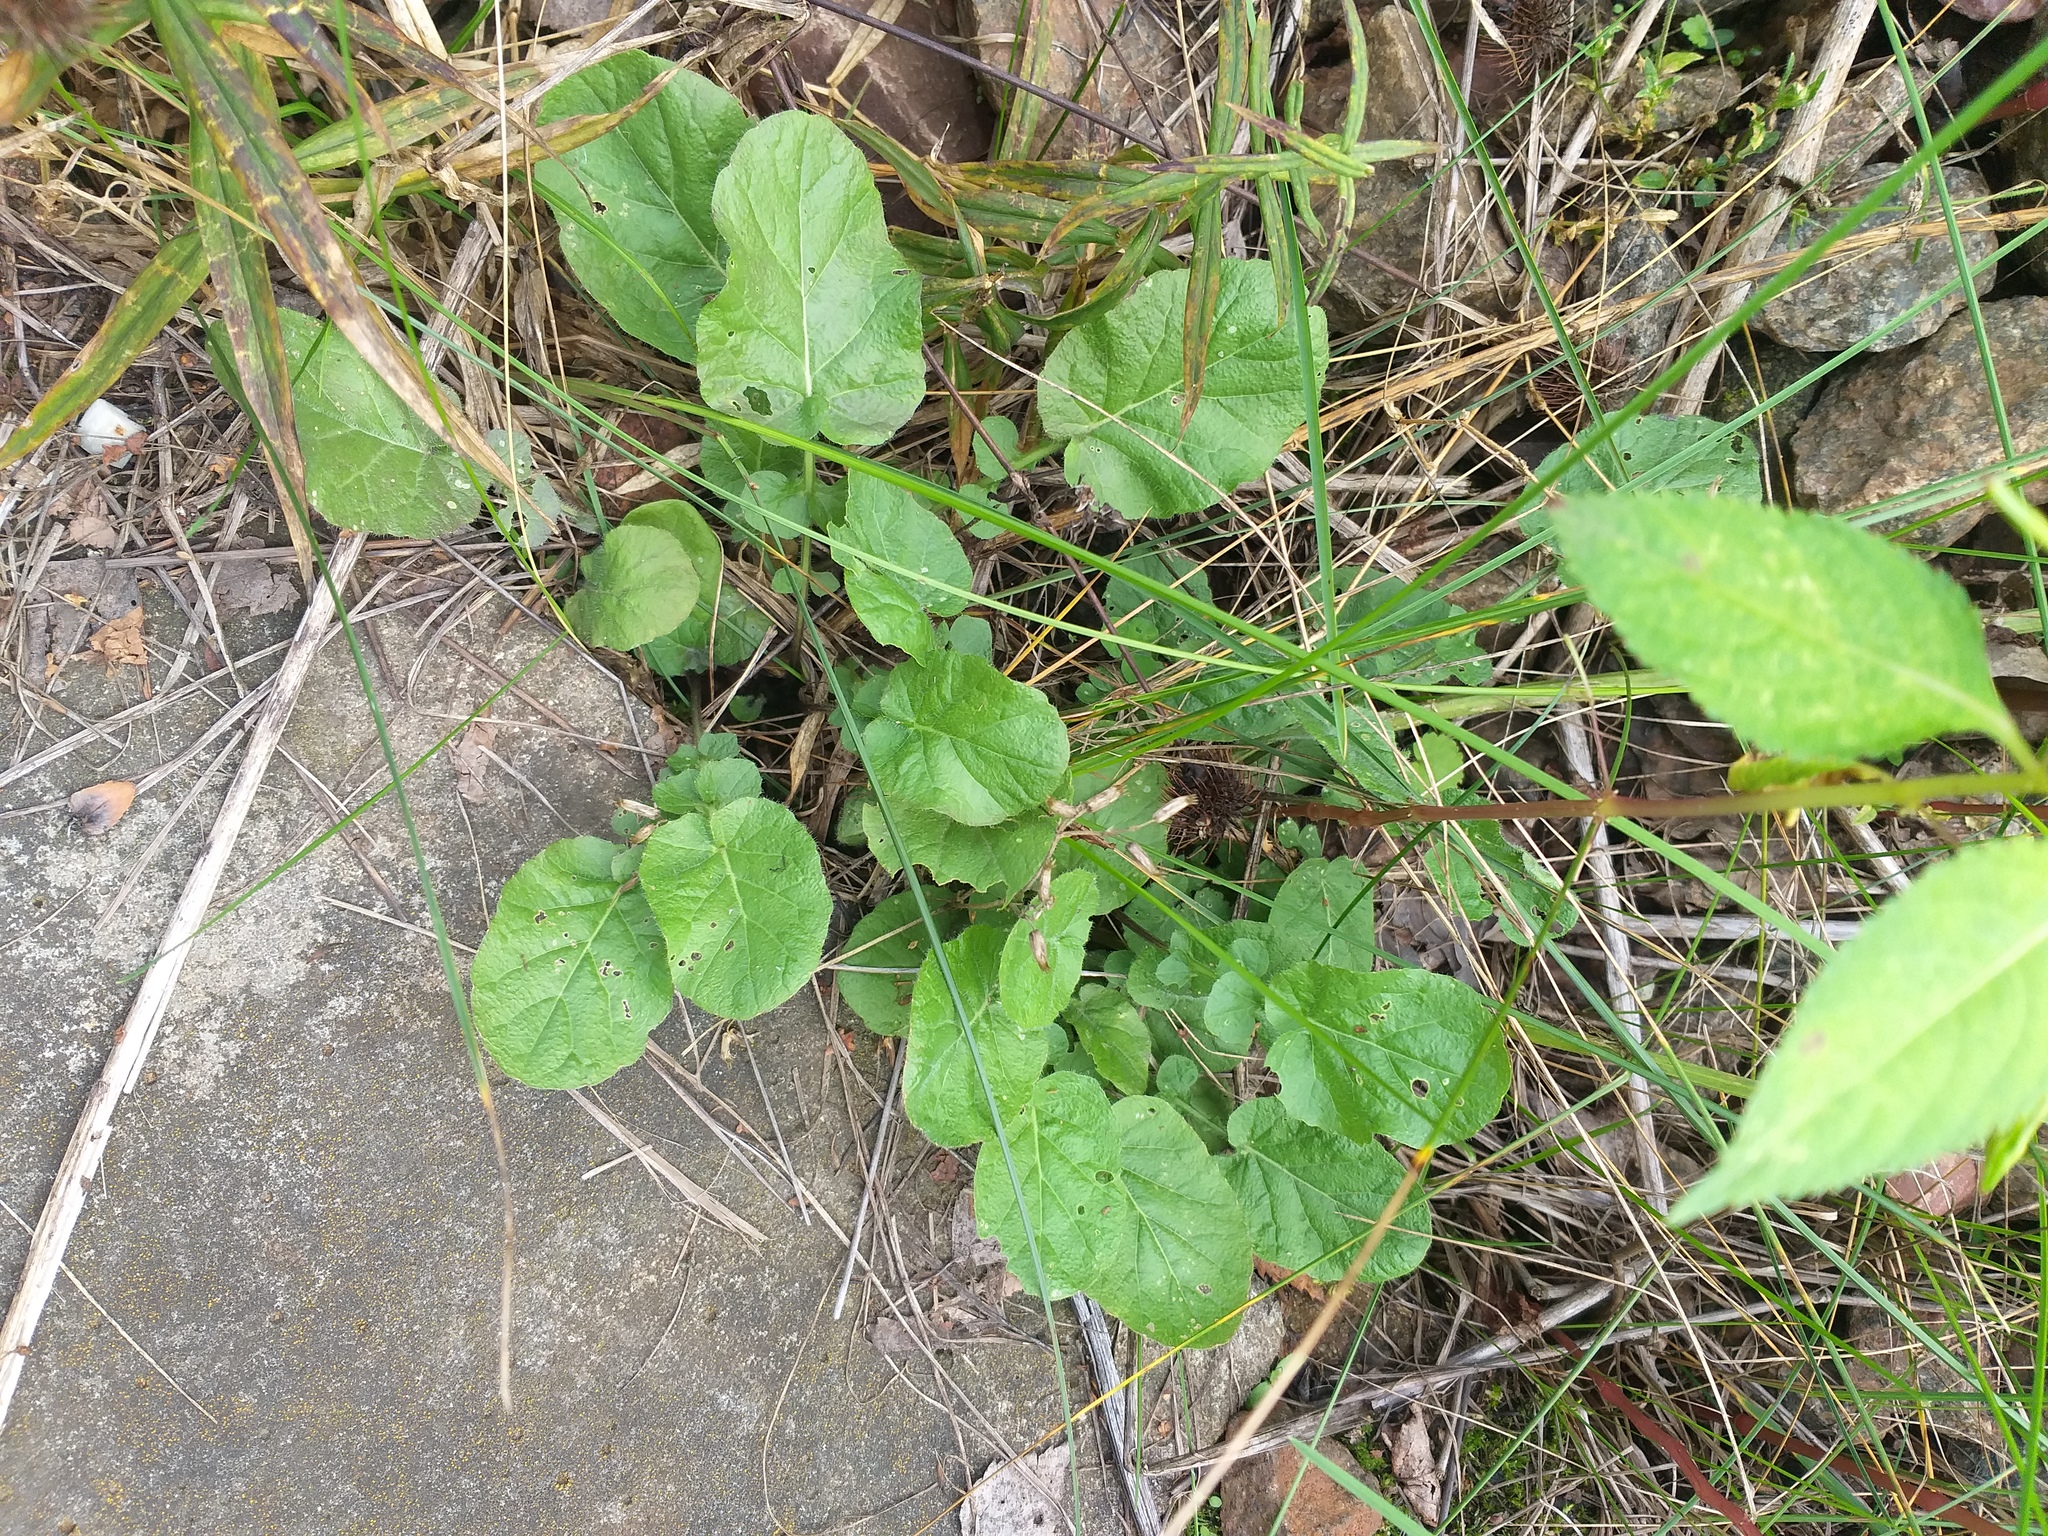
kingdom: Plantae
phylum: Tracheophyta
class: Magnoliopsida
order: Brassicales
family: Brassicaceae
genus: Barbarea
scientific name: Barbarea vulgaris
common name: Cressy-greens
